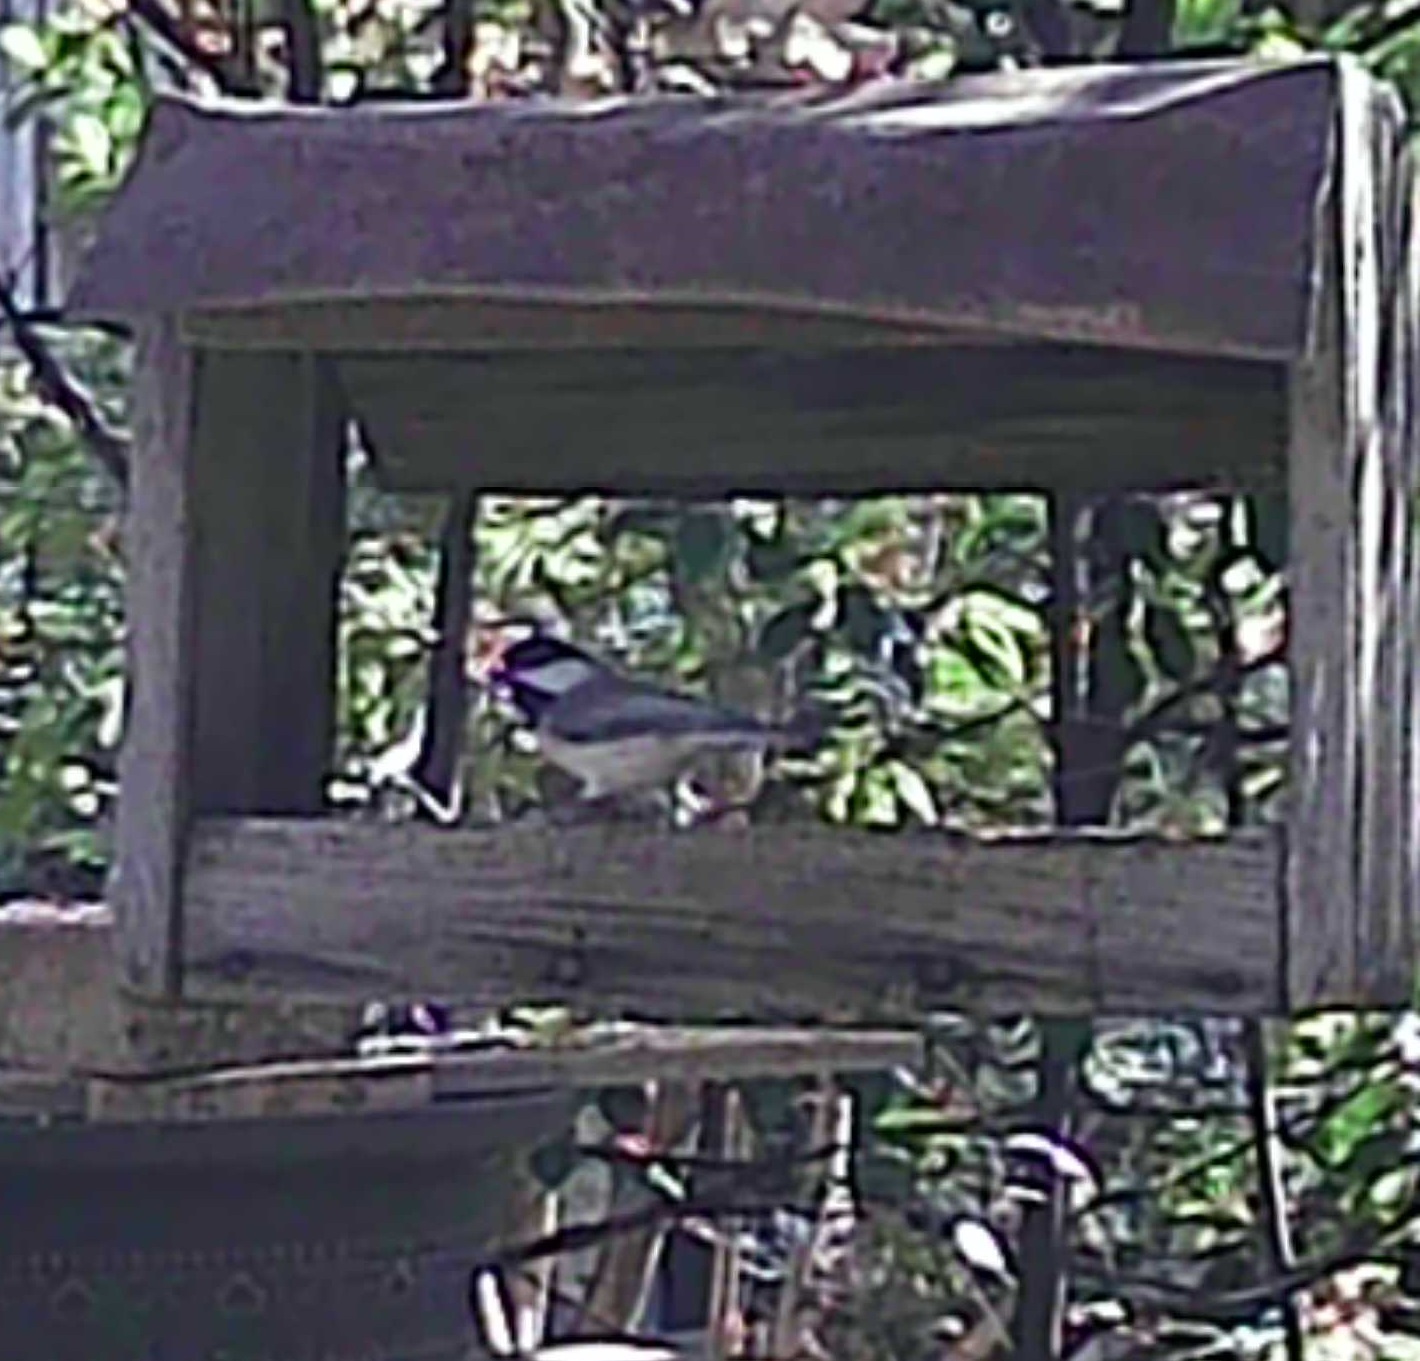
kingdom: Animalia
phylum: Chordata
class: Aves
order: Passeriformes
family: Paridae
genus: Poecile
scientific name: Poecile carolinensis
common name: Carolina chickadee
